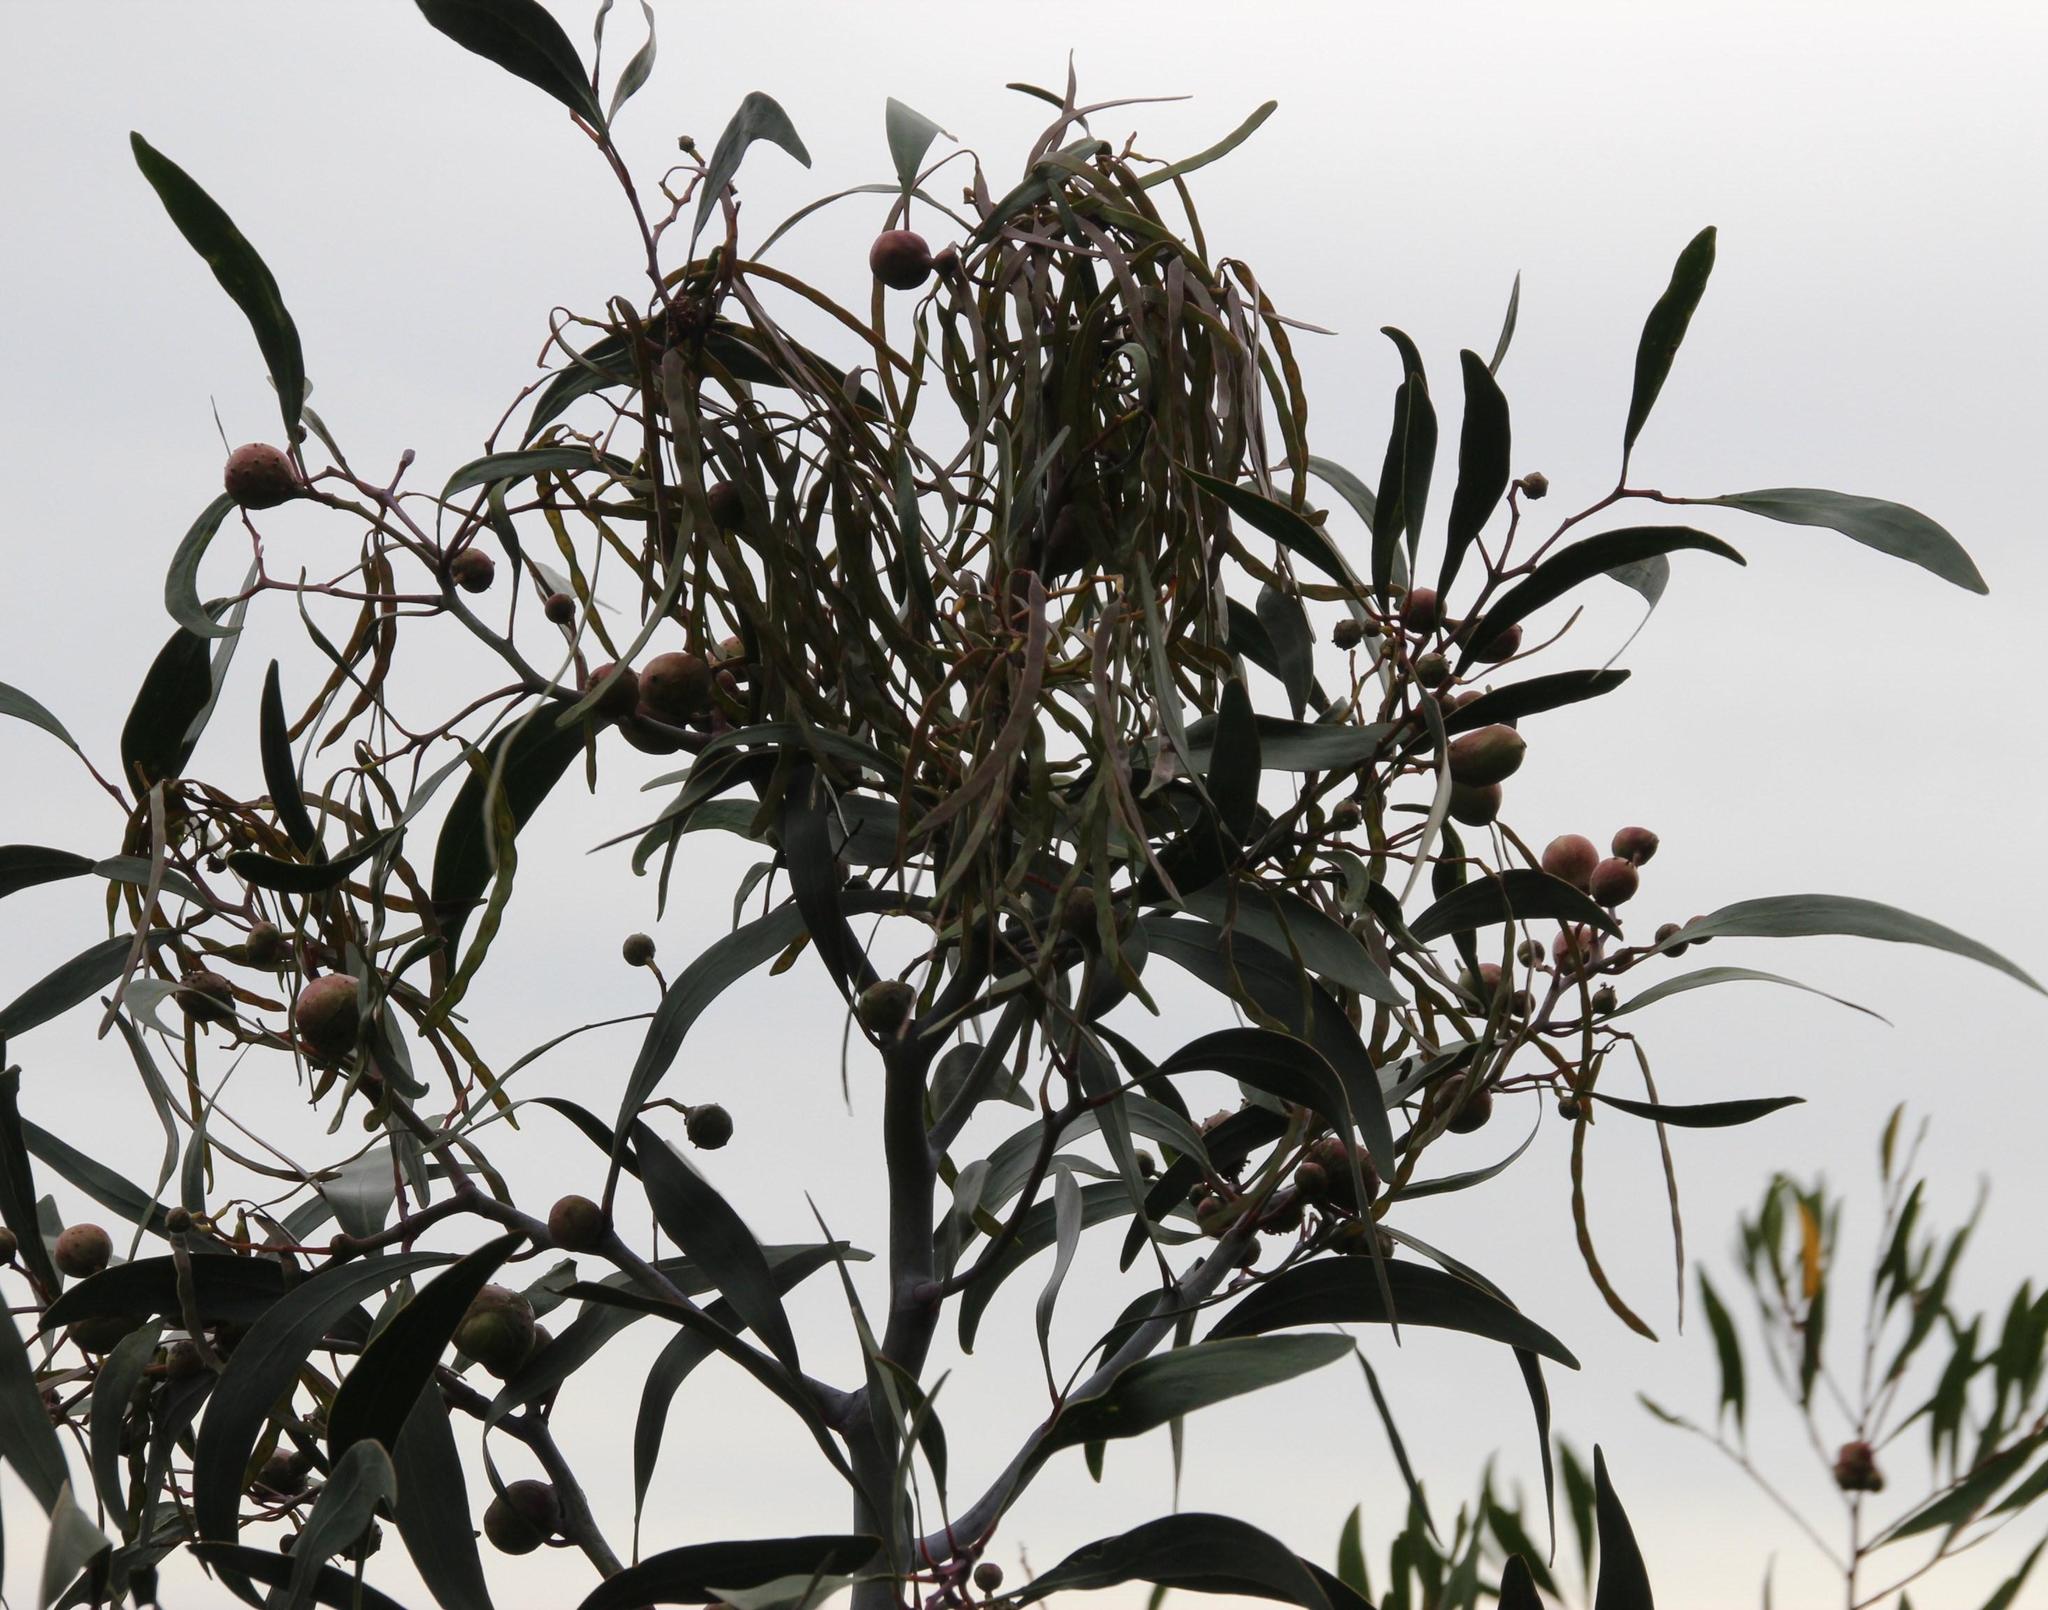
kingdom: Plantae
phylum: Tracheophyta
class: Magnoliopsida
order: Fabales
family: Fabaceae
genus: Acacia
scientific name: Acacia pycnantha
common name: Golden wattle
